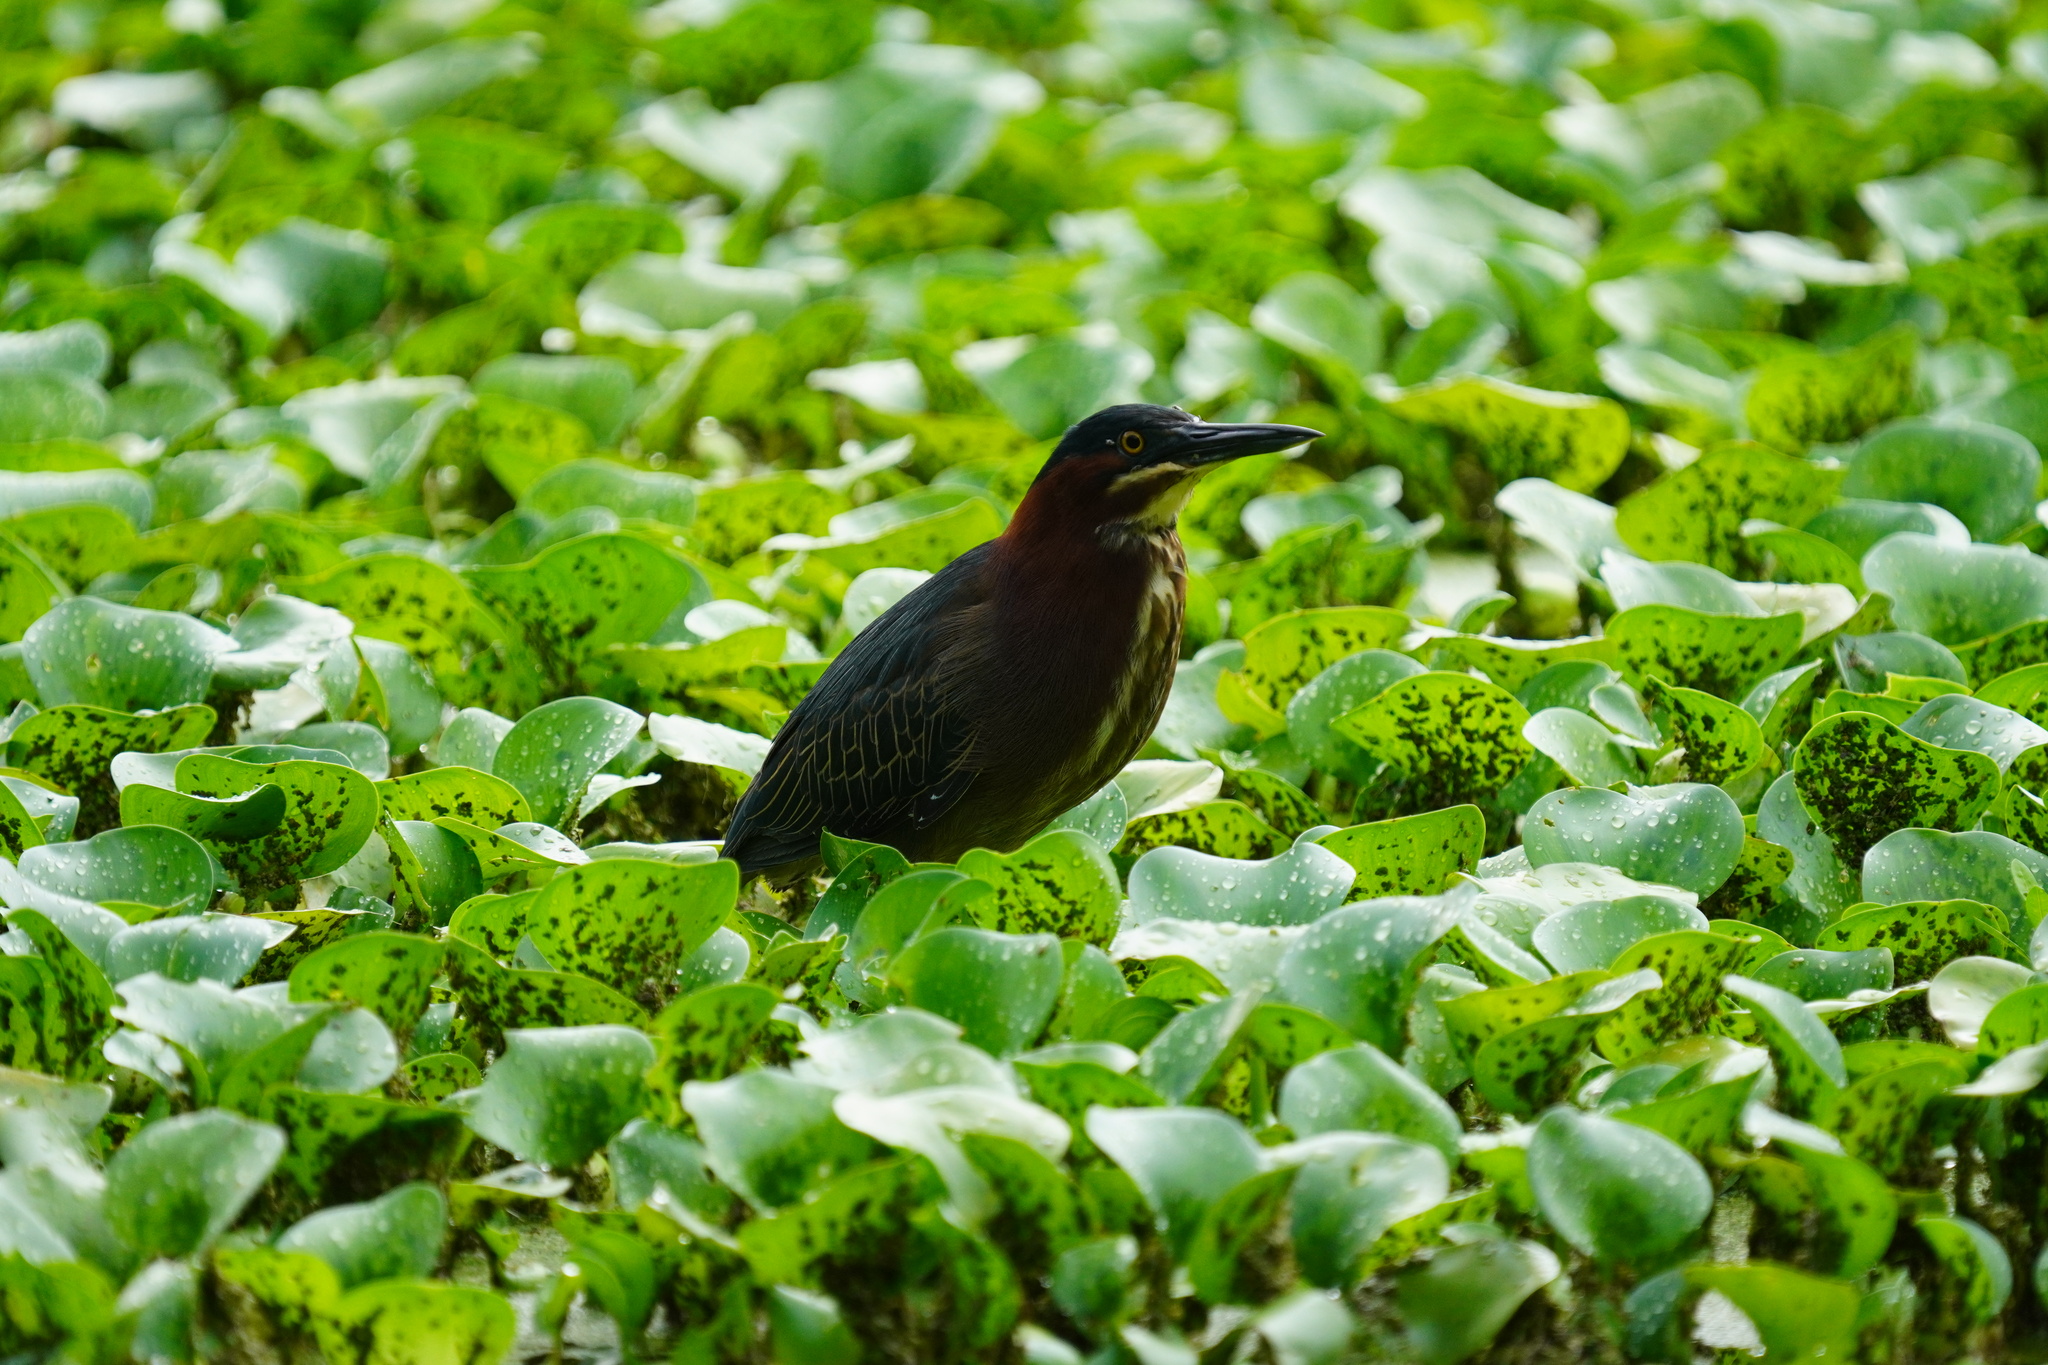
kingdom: Animalia
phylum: Chordata
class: Aves
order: Pelecaniformes
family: Ardeidae
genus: Butorides
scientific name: Butorides virescens
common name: Green heron
